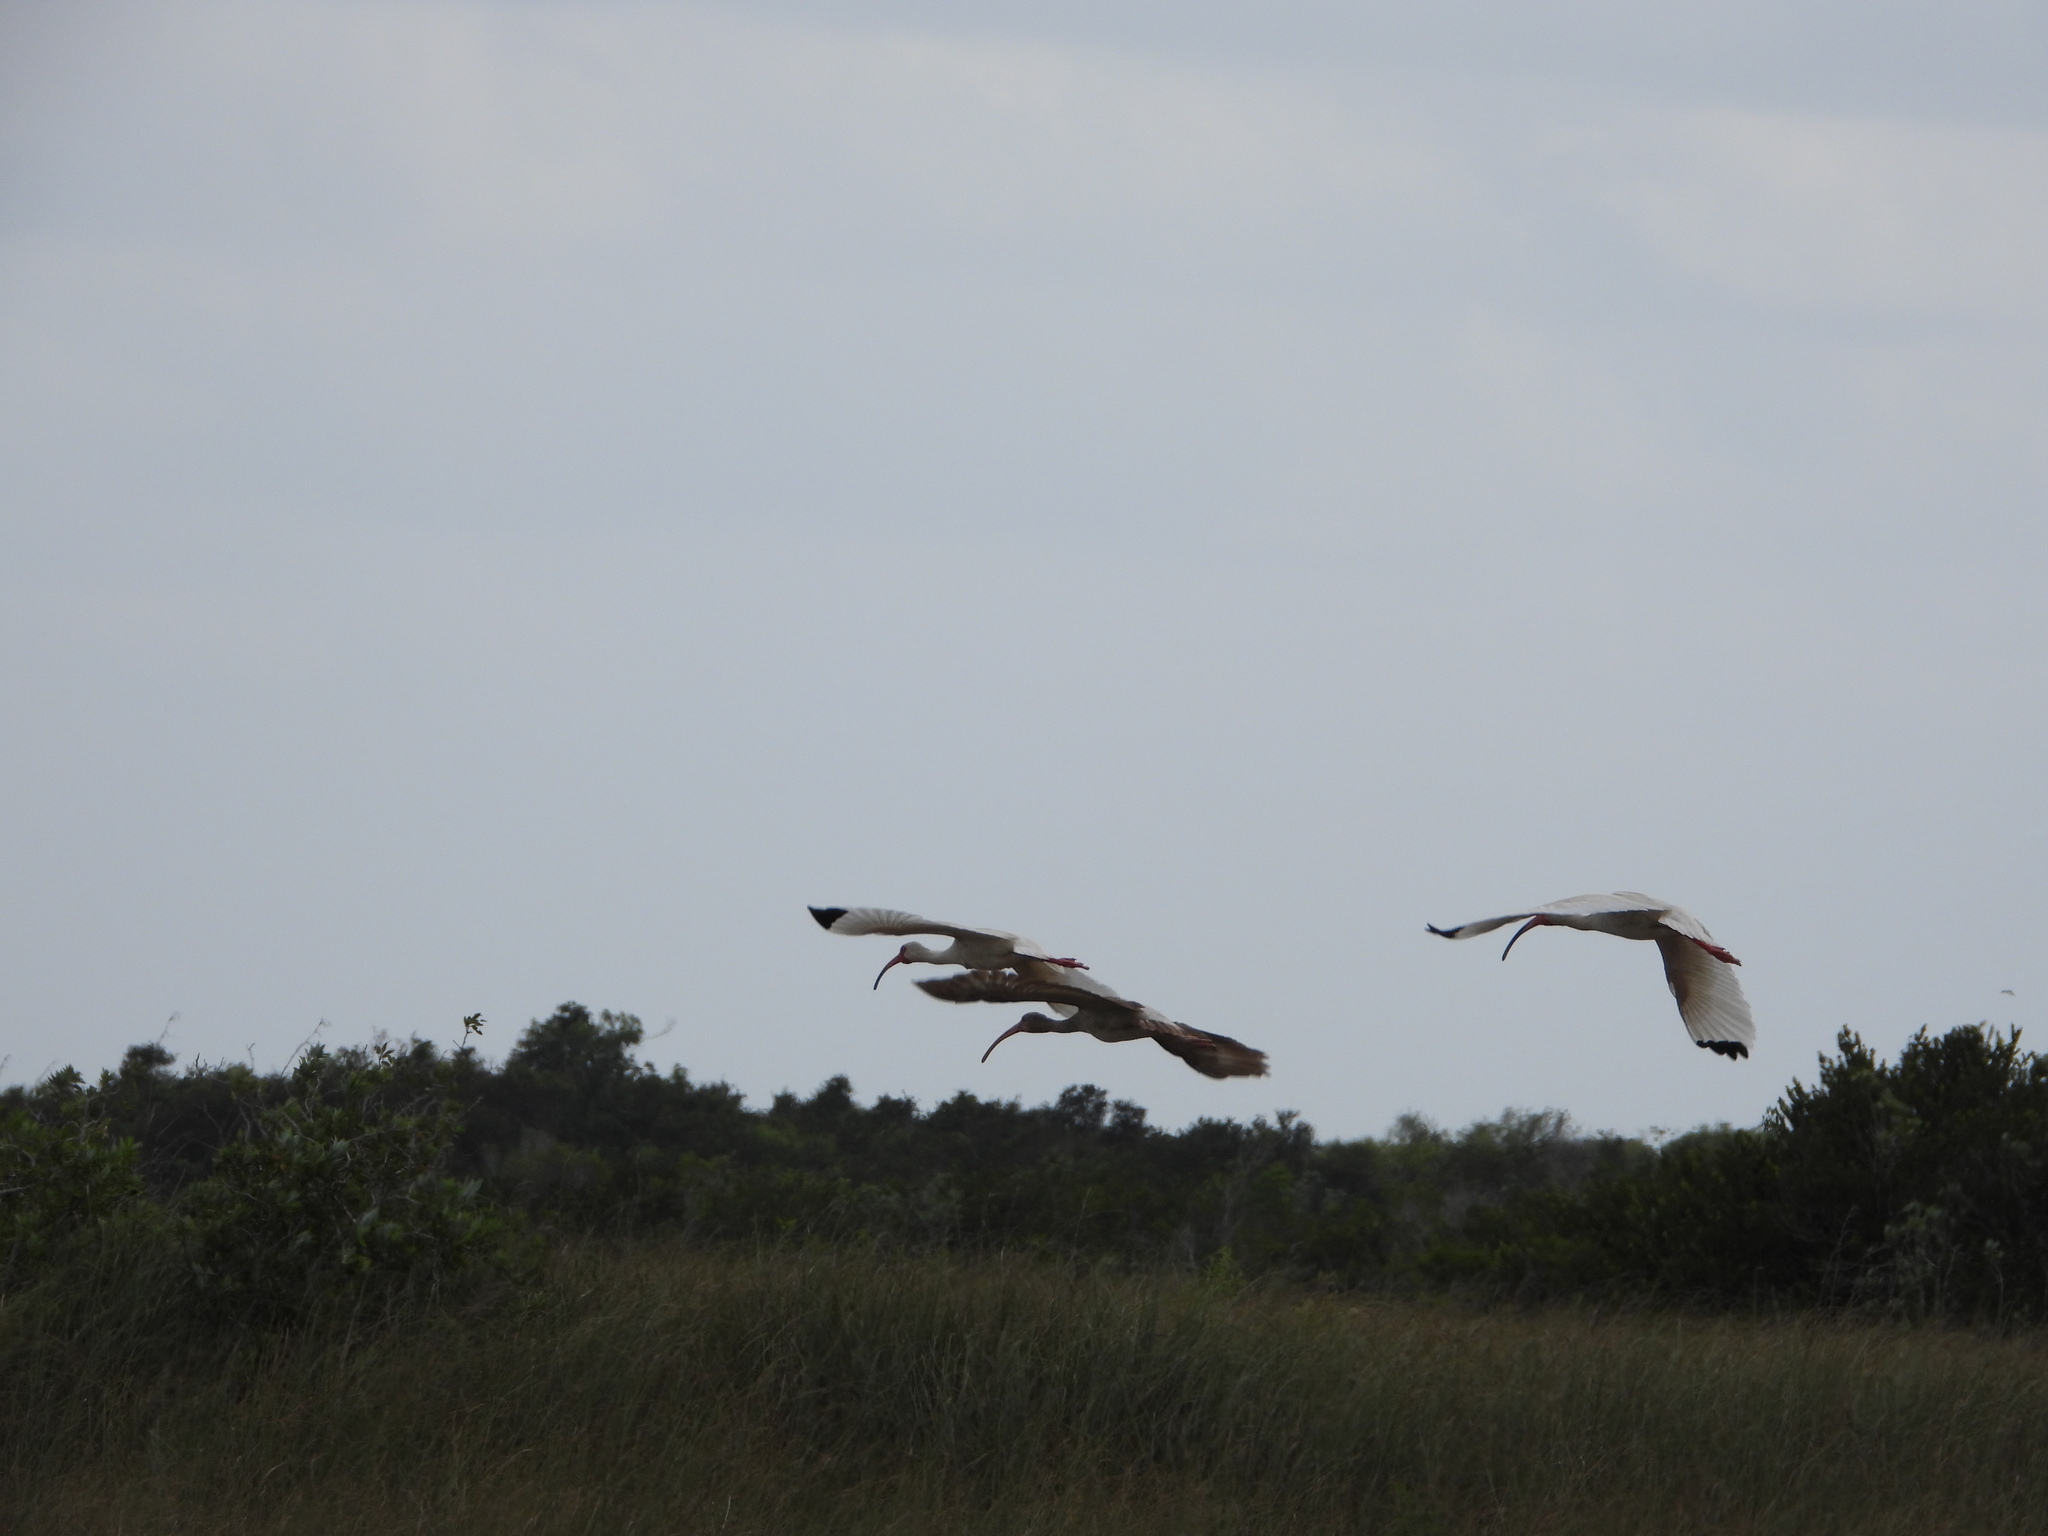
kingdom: Animalia
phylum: Chordata
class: Aves
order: Pelecaniformes
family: Threskiornithidae
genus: Eudocimus
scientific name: Eudocimus albus
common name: White ibis
